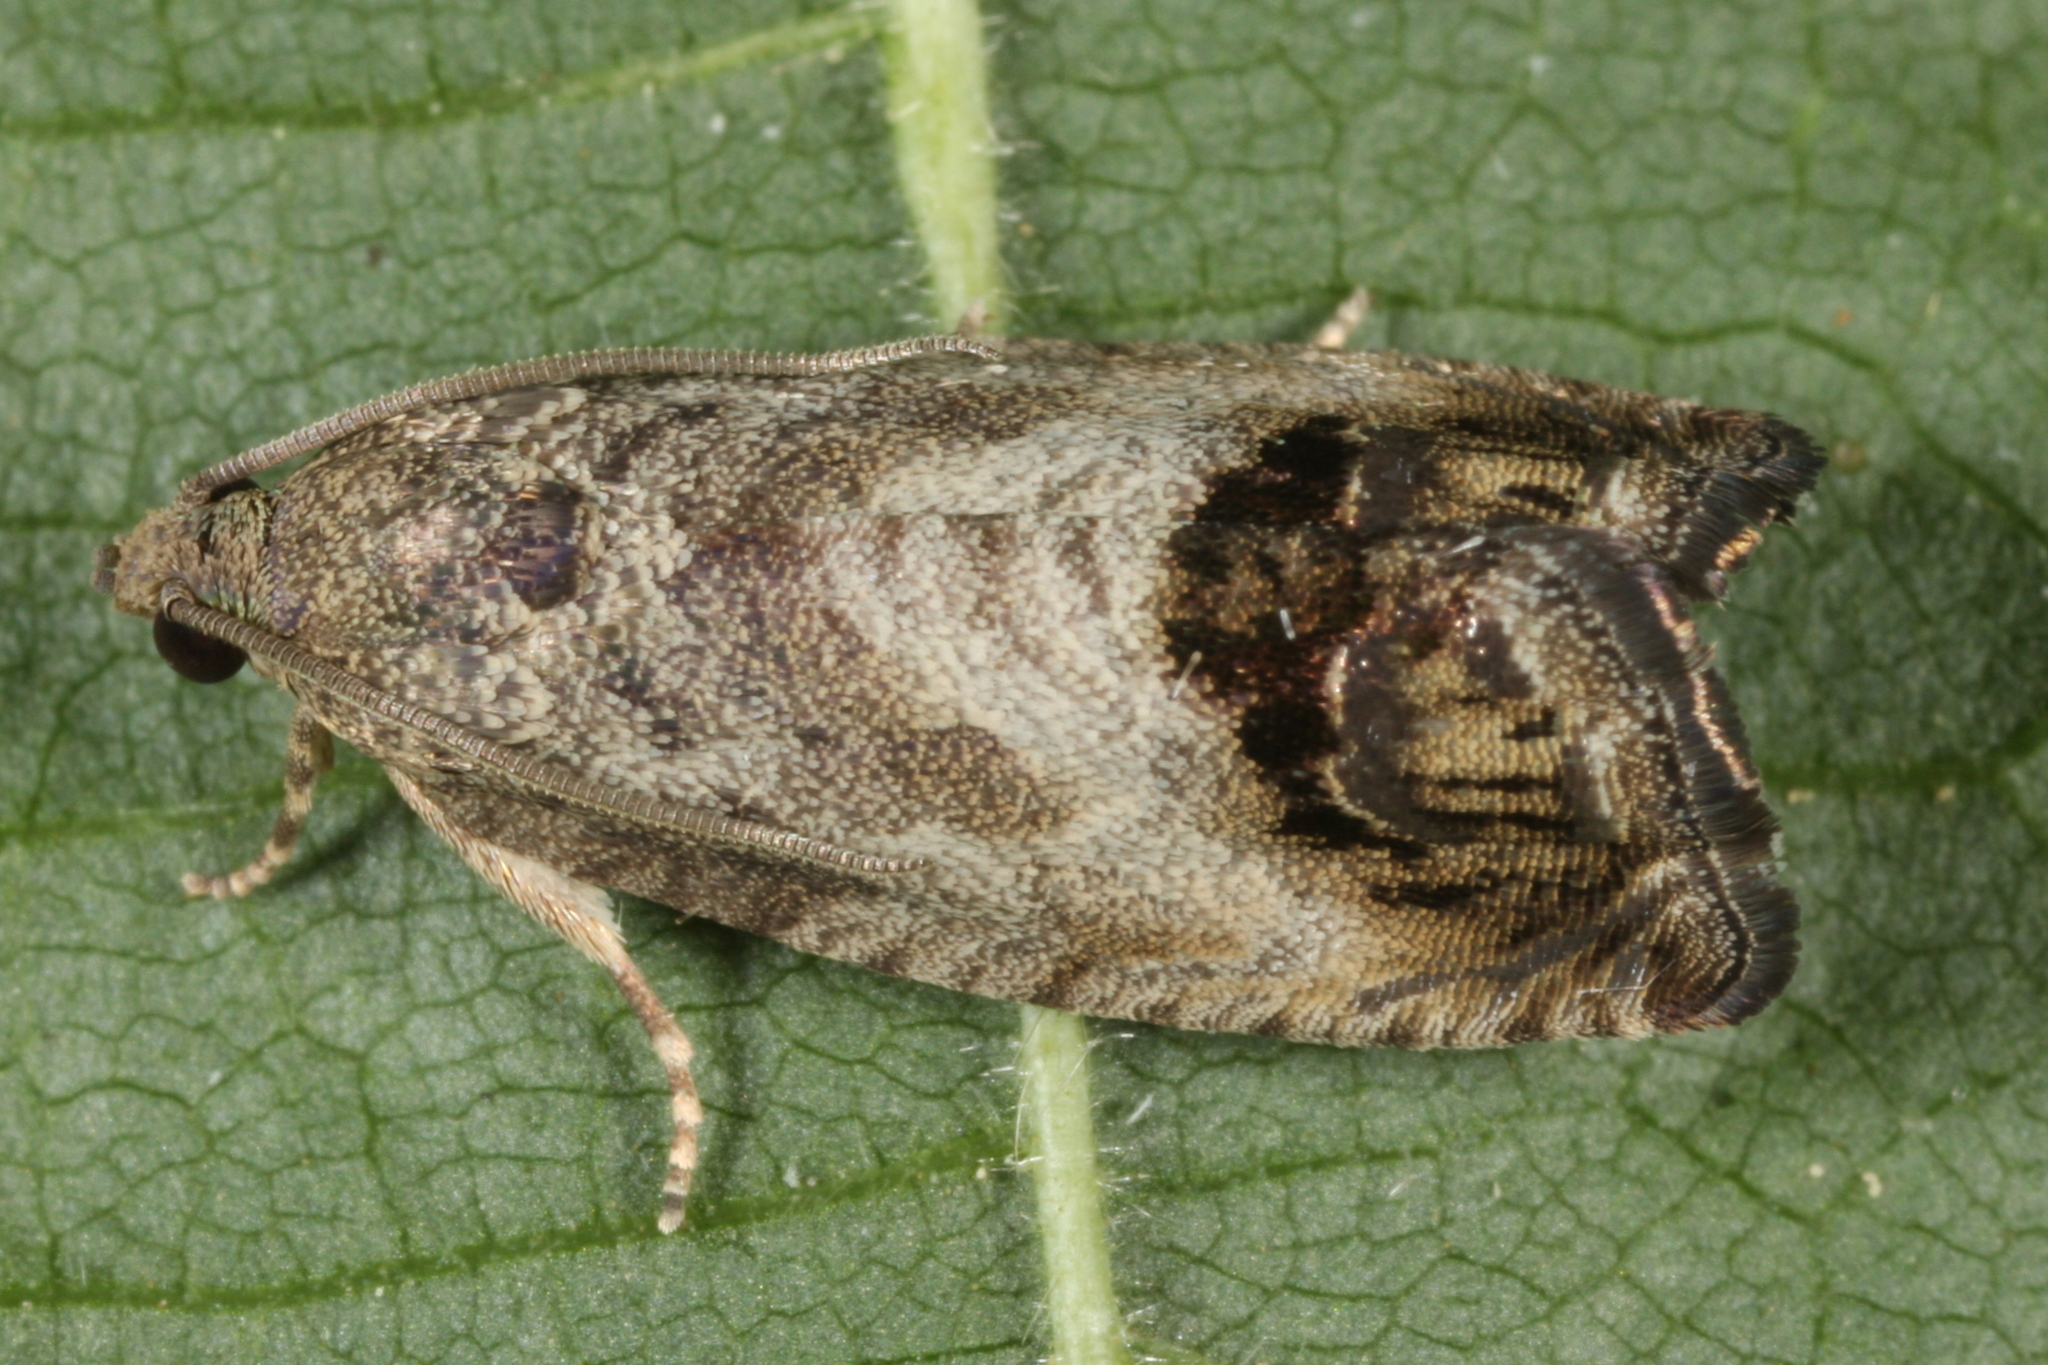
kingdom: Animalia
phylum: Arthropoda
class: Insecta
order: Lepidoptera
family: Tortricidae
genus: Cydia
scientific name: Cydia splendana
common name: De: kastanienwickler, eichenwickler es: oruga de la castaña fr: carpocapse des châtaignes it: cidia o tortrice tardiva delle castagne pt: bichado das castanhas gb: acorn moth, chestnut fruit tortrix
